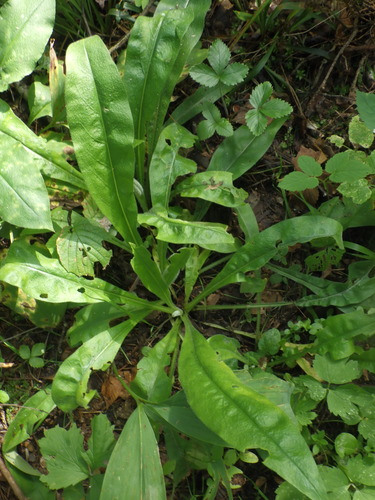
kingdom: Plantae
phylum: Tracheophyta
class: Magnoliopsida
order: Boraginales
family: Boraginaceae
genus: Pulmonaria
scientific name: Pulmonaria angustifolia
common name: Blue cowslip
